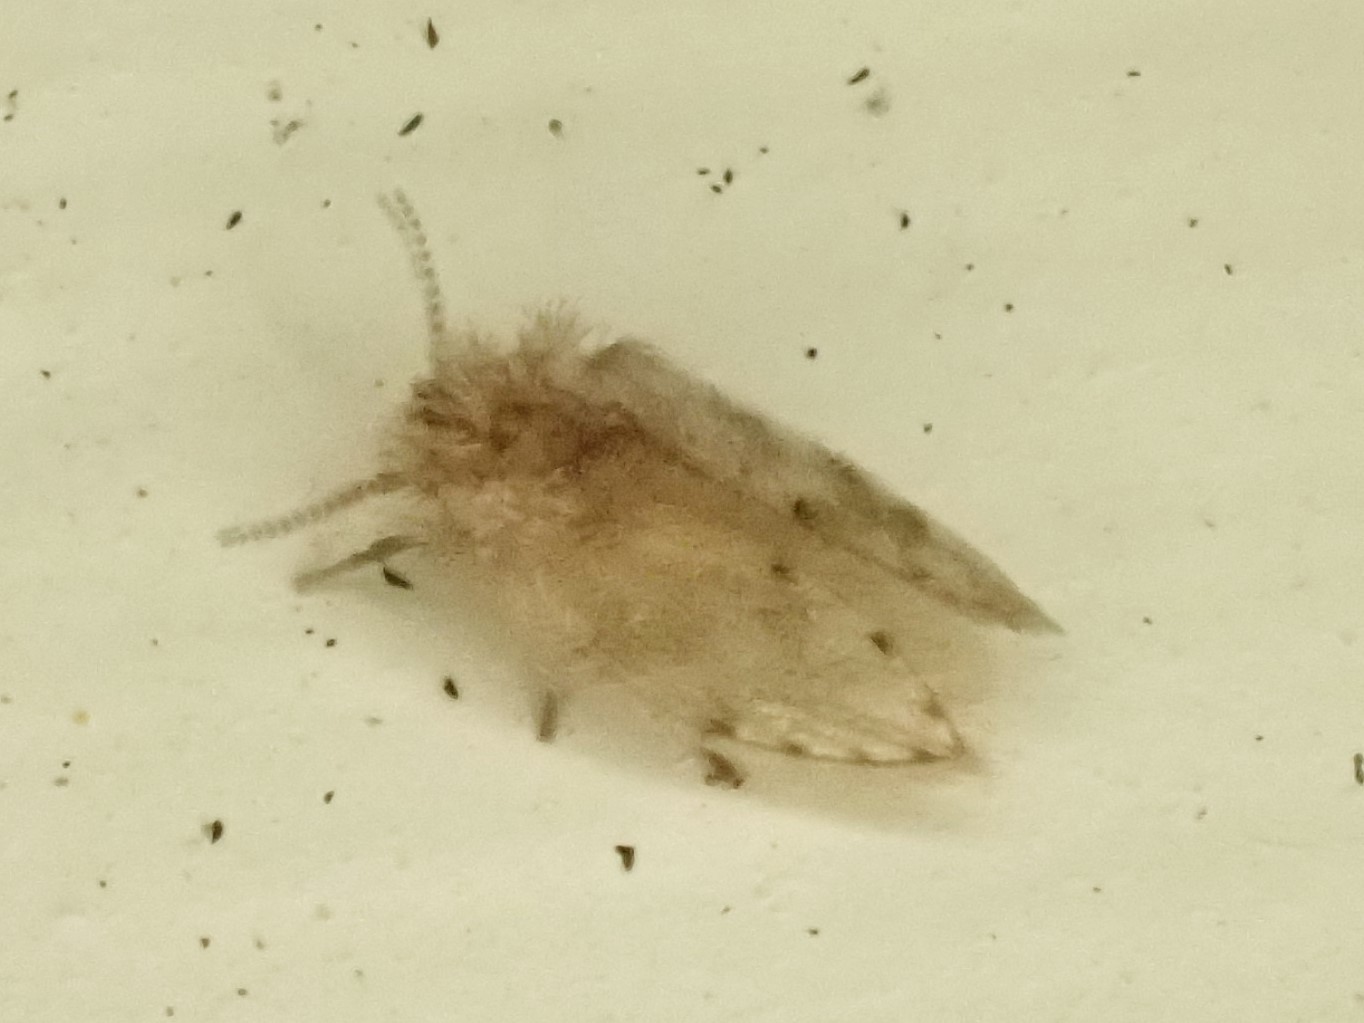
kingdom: Animalia
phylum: Arthropoda
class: Insecta
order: Diptera
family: Psychodidae
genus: Psychoda
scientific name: Psychoda alternata
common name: Moth fly
